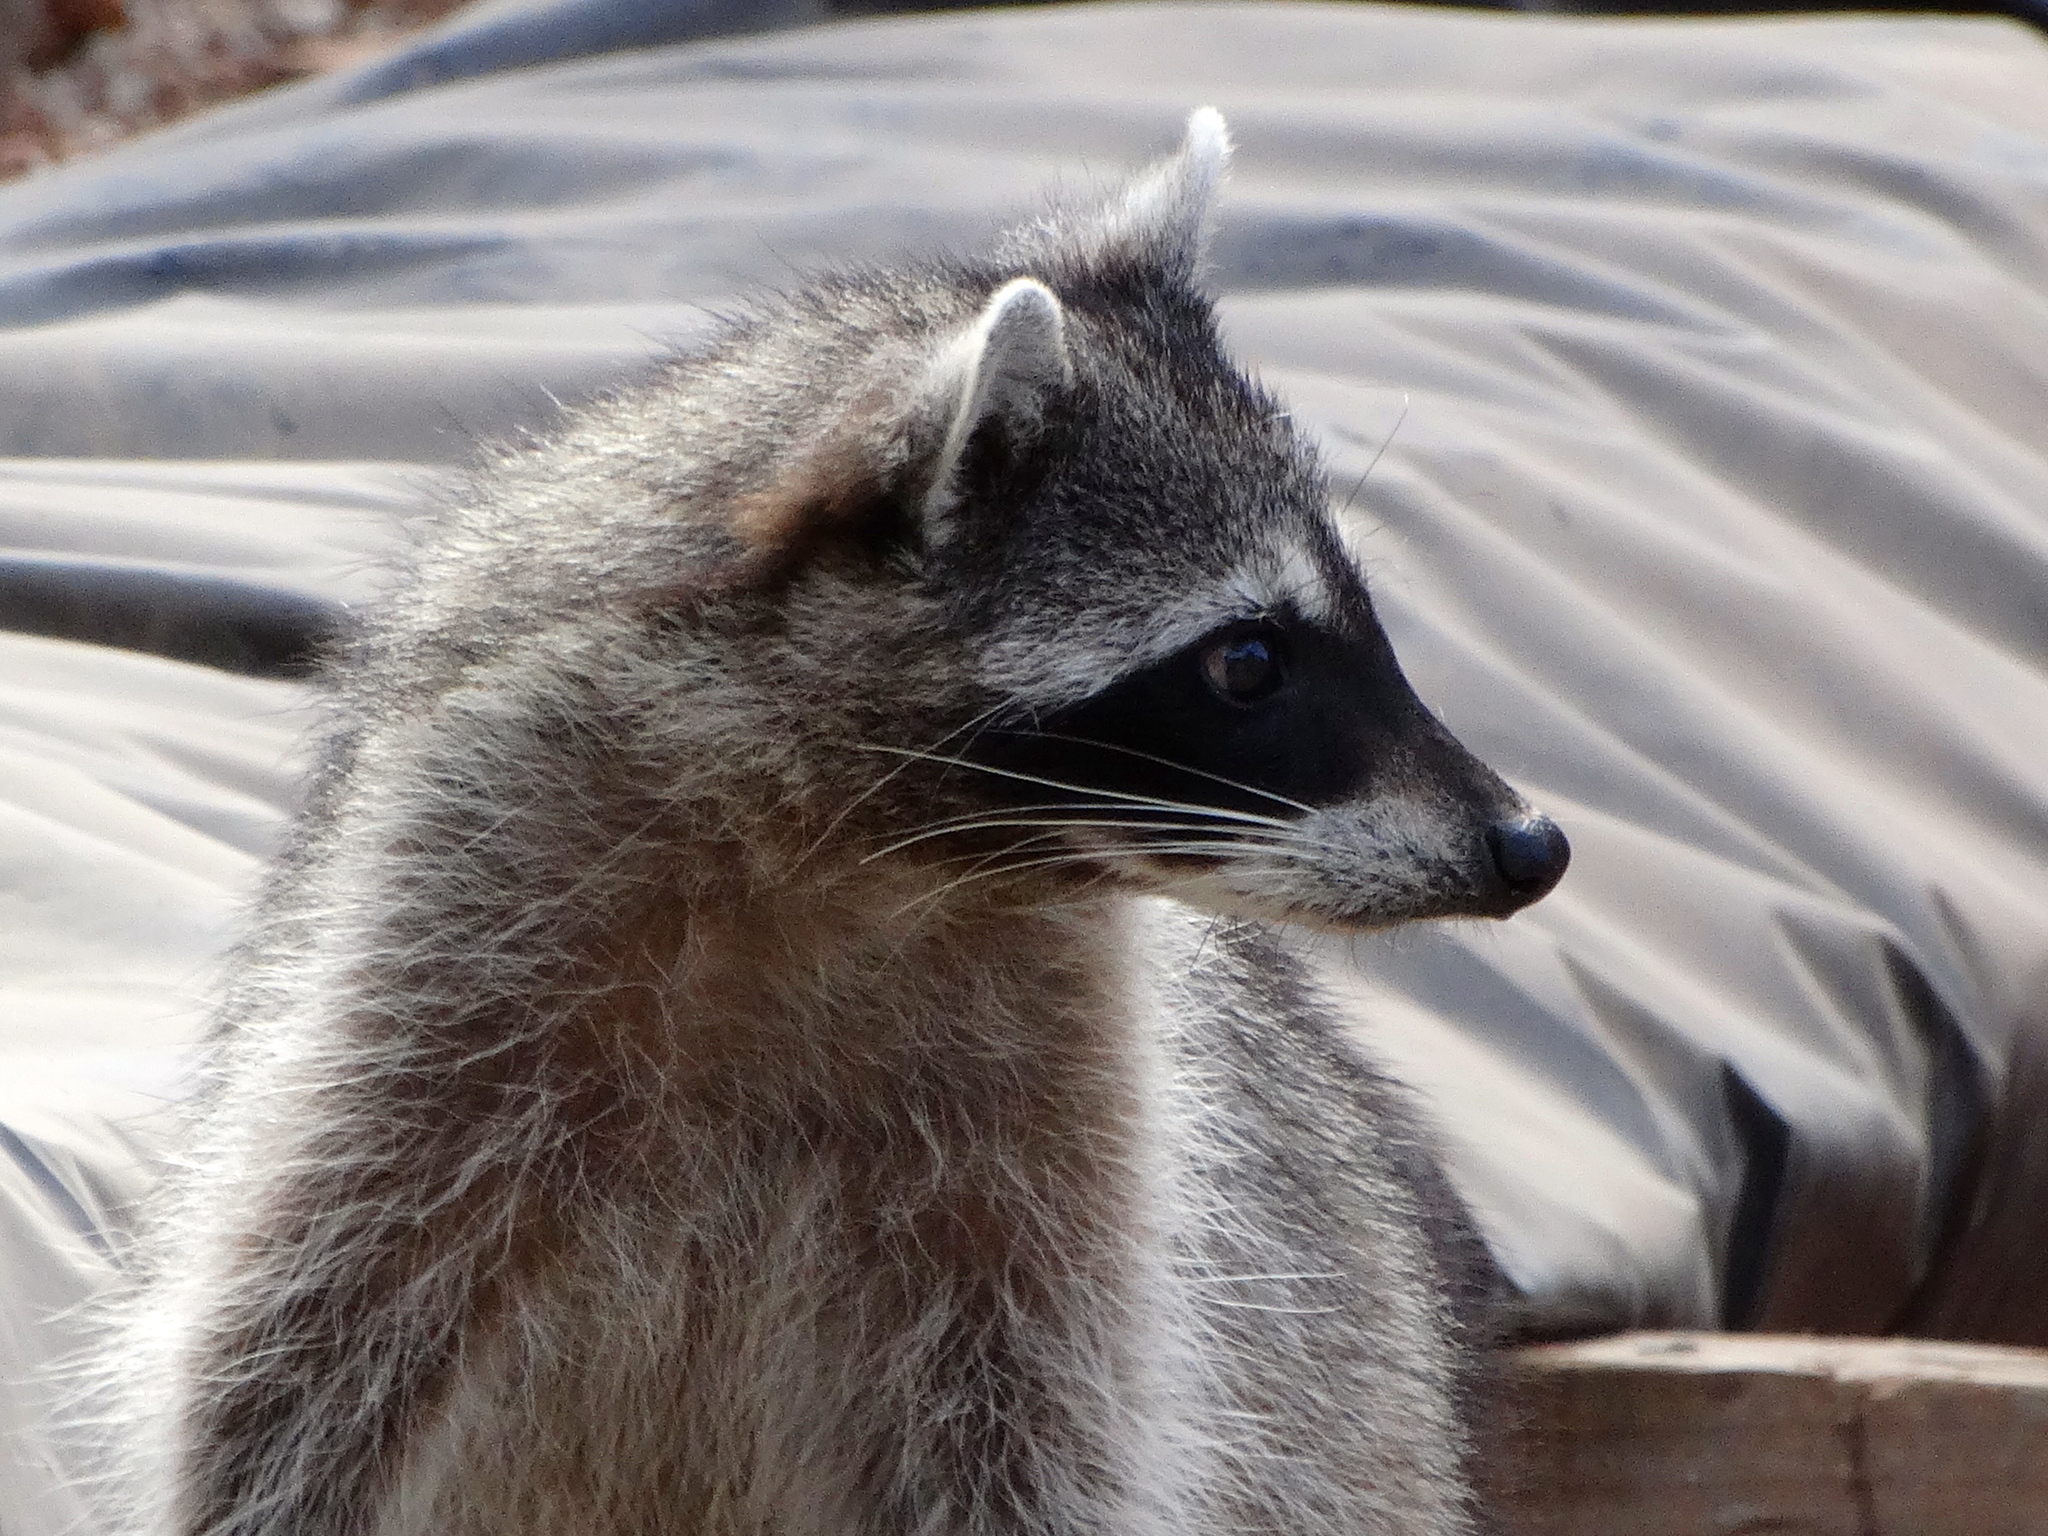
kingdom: Animalia
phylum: Chordata
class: Mammalia
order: Carnivora
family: Procyonidae
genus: Procyon
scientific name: Procyon lotor
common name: Raccoon
